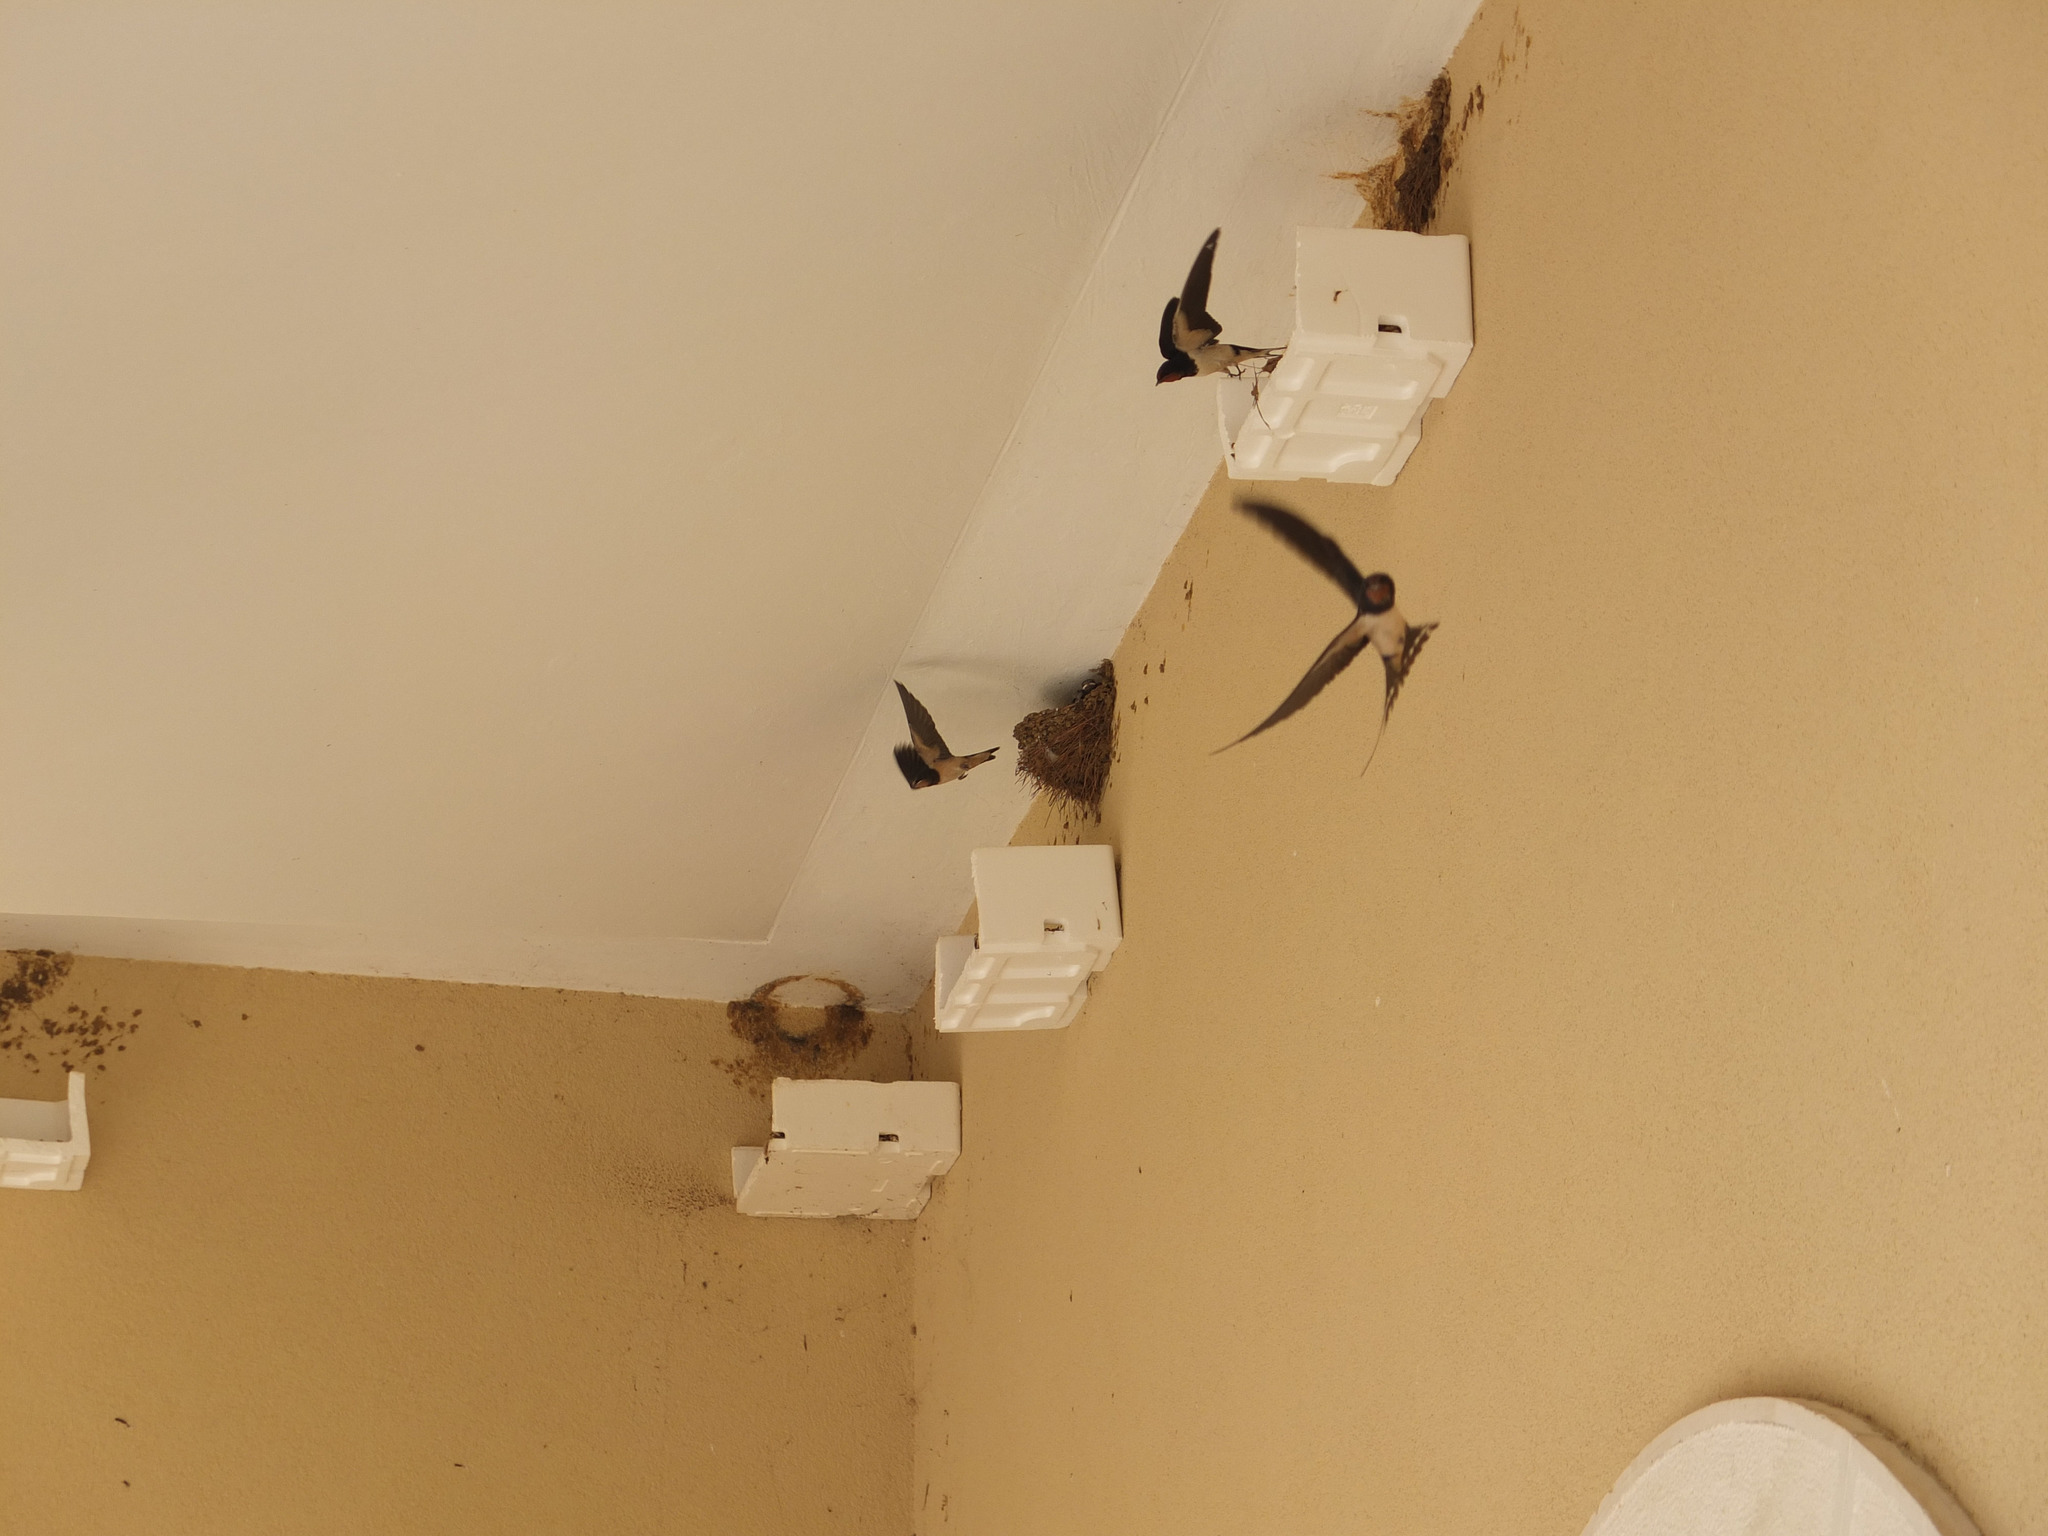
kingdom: Animalia
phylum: Chordata
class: Aves
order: Passeriformes
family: Hirundinidae
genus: Hirundo
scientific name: Hirundo rustica
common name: Barn swallow
